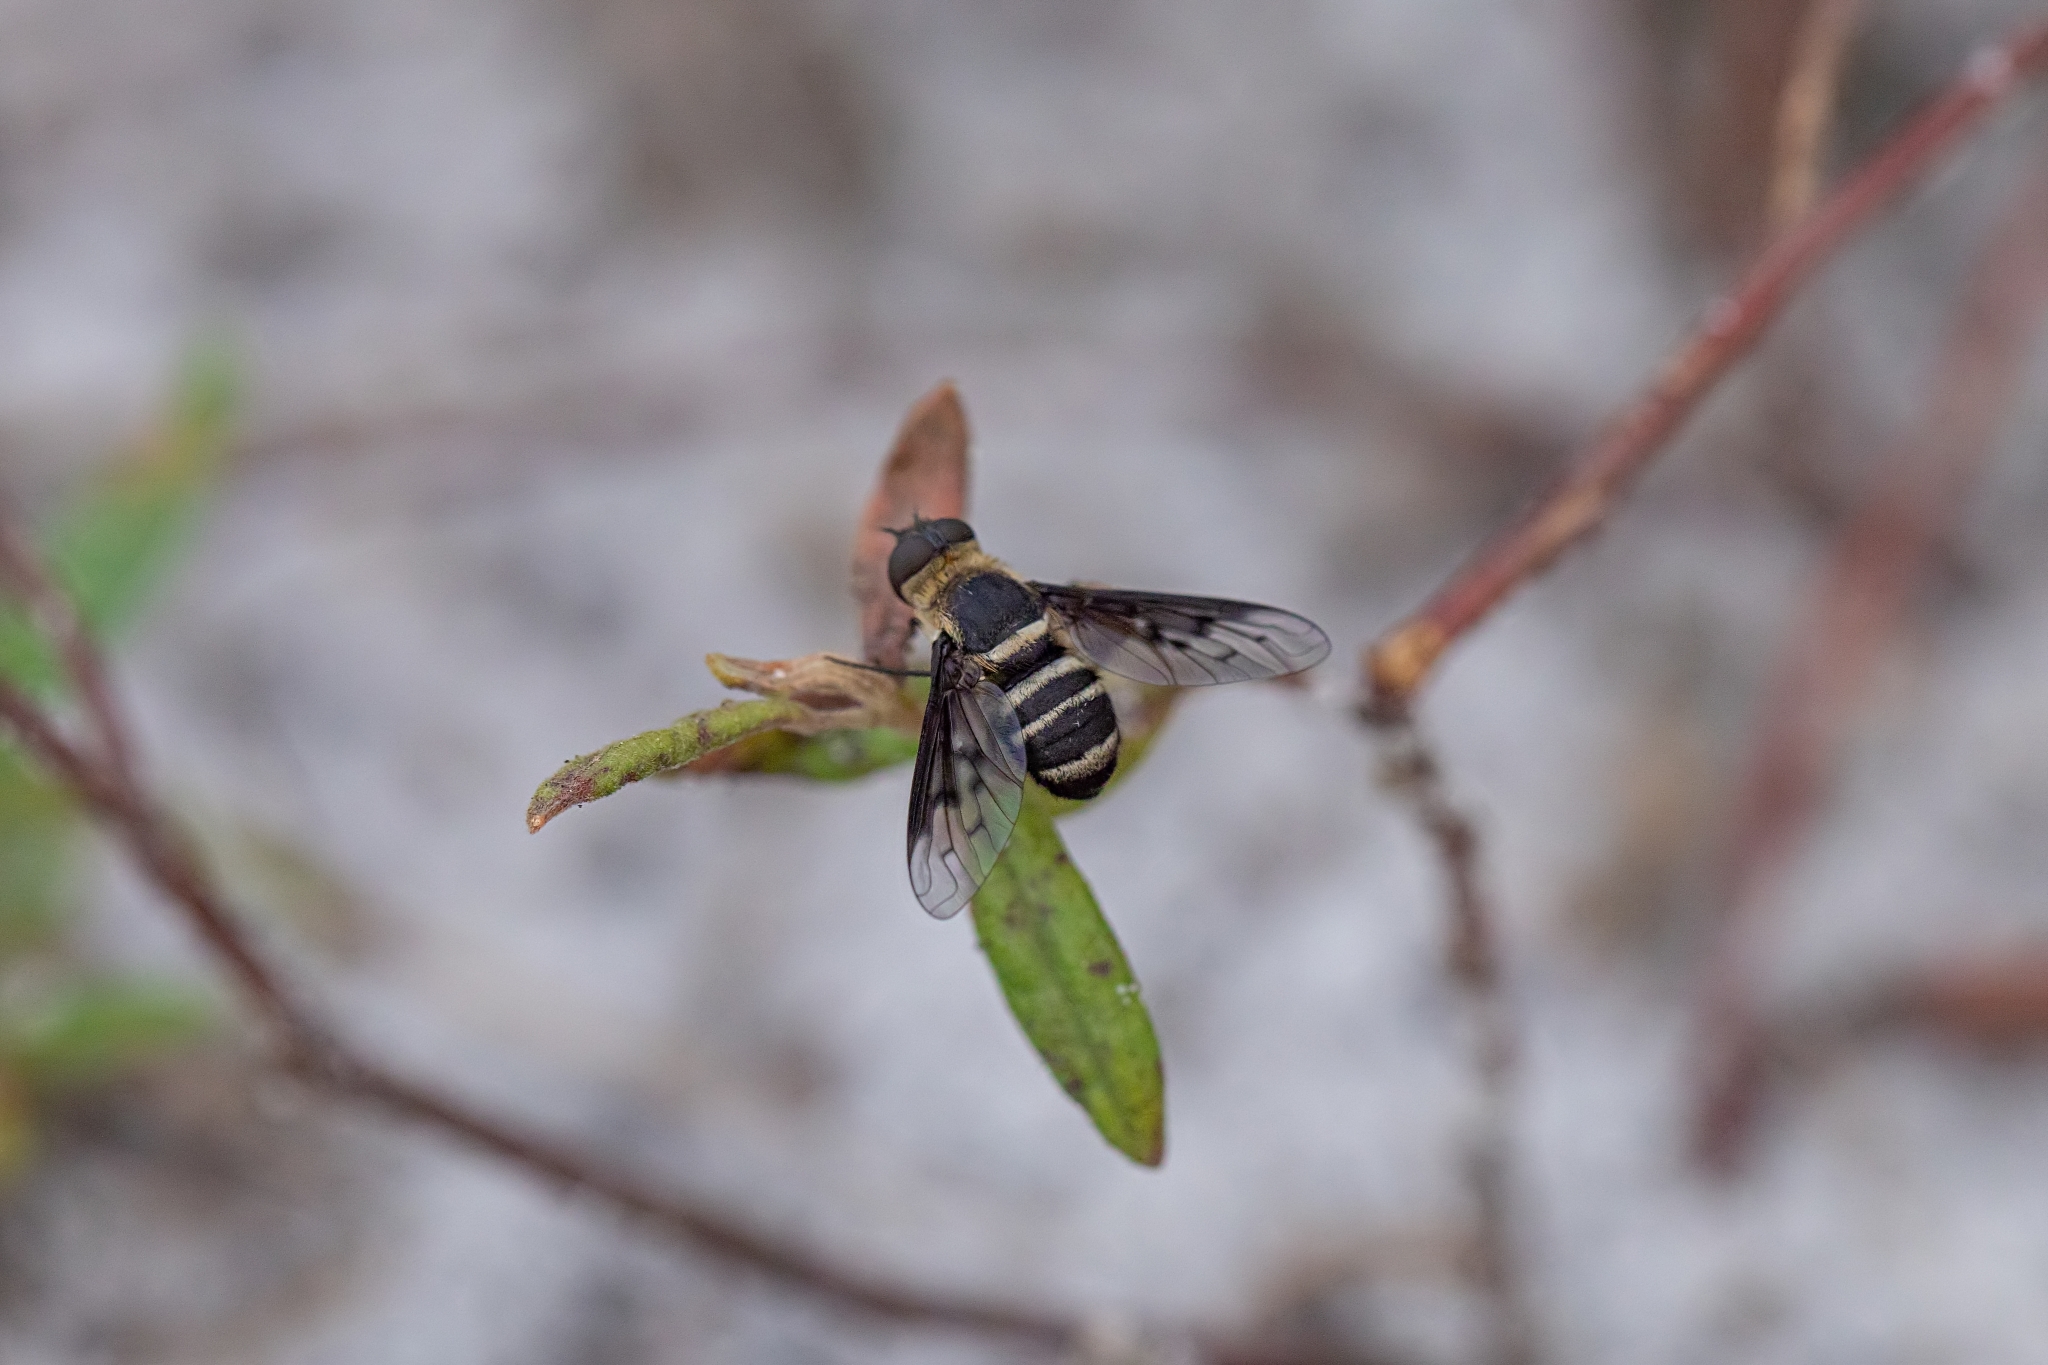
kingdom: Animalia
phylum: Arthropoda
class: Insecta
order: Diptera
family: Bombyliidae
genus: Chrysanthrax
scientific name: Chrysanthrax dispar
